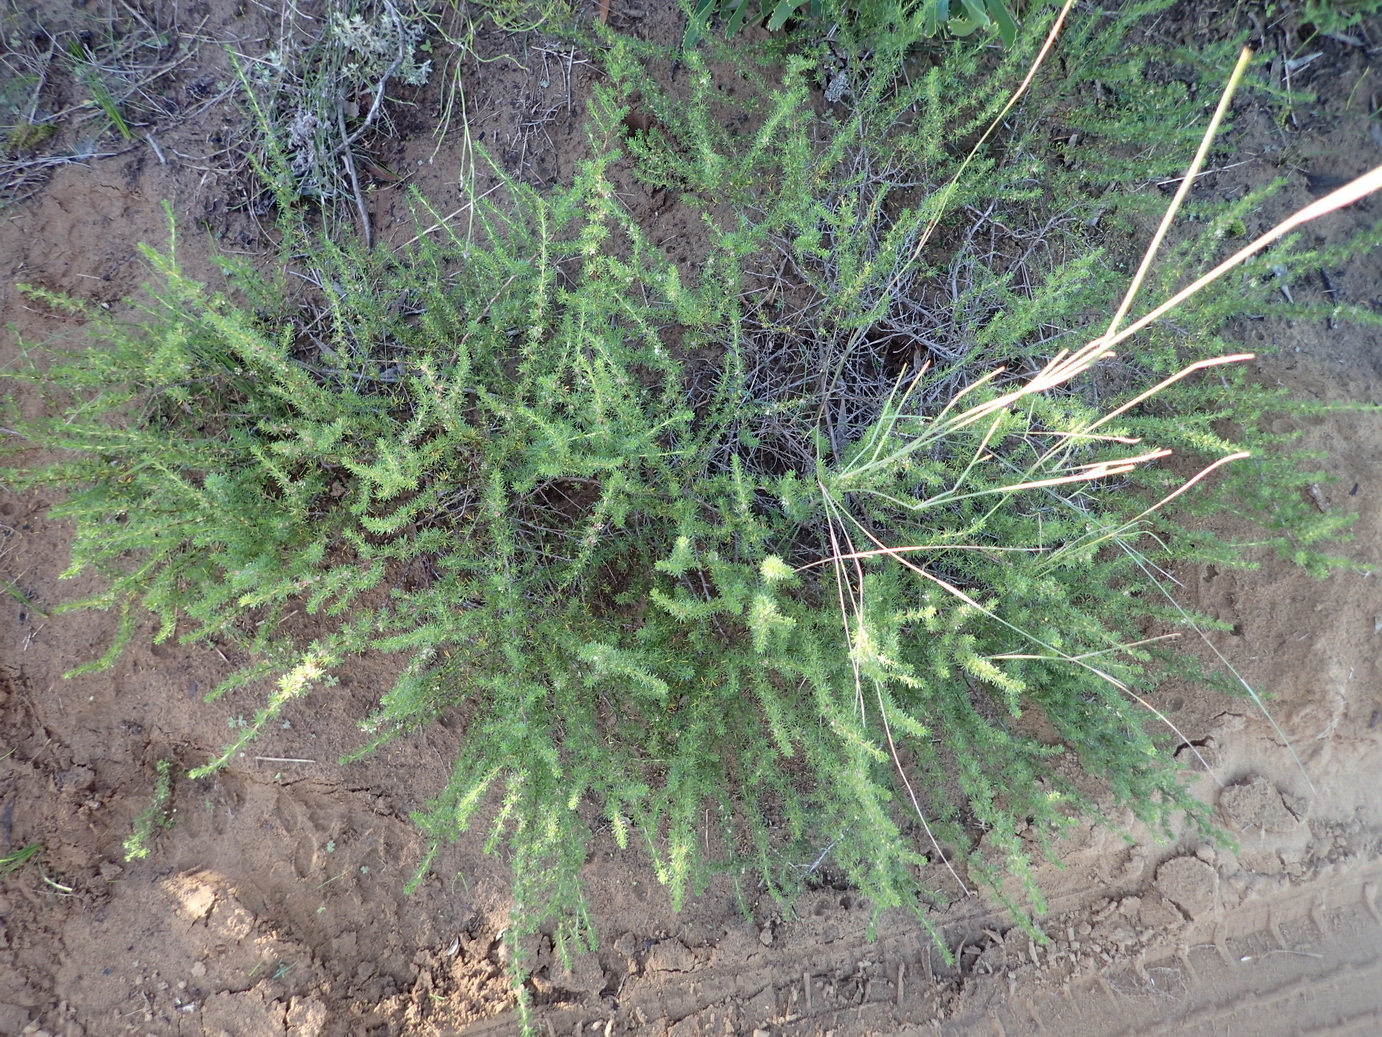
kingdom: Plantae
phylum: Tracheophyta
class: Magnoliopsida
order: Rosales
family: Rosaceae
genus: Cliffortia
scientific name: Cliffortia filifolia
